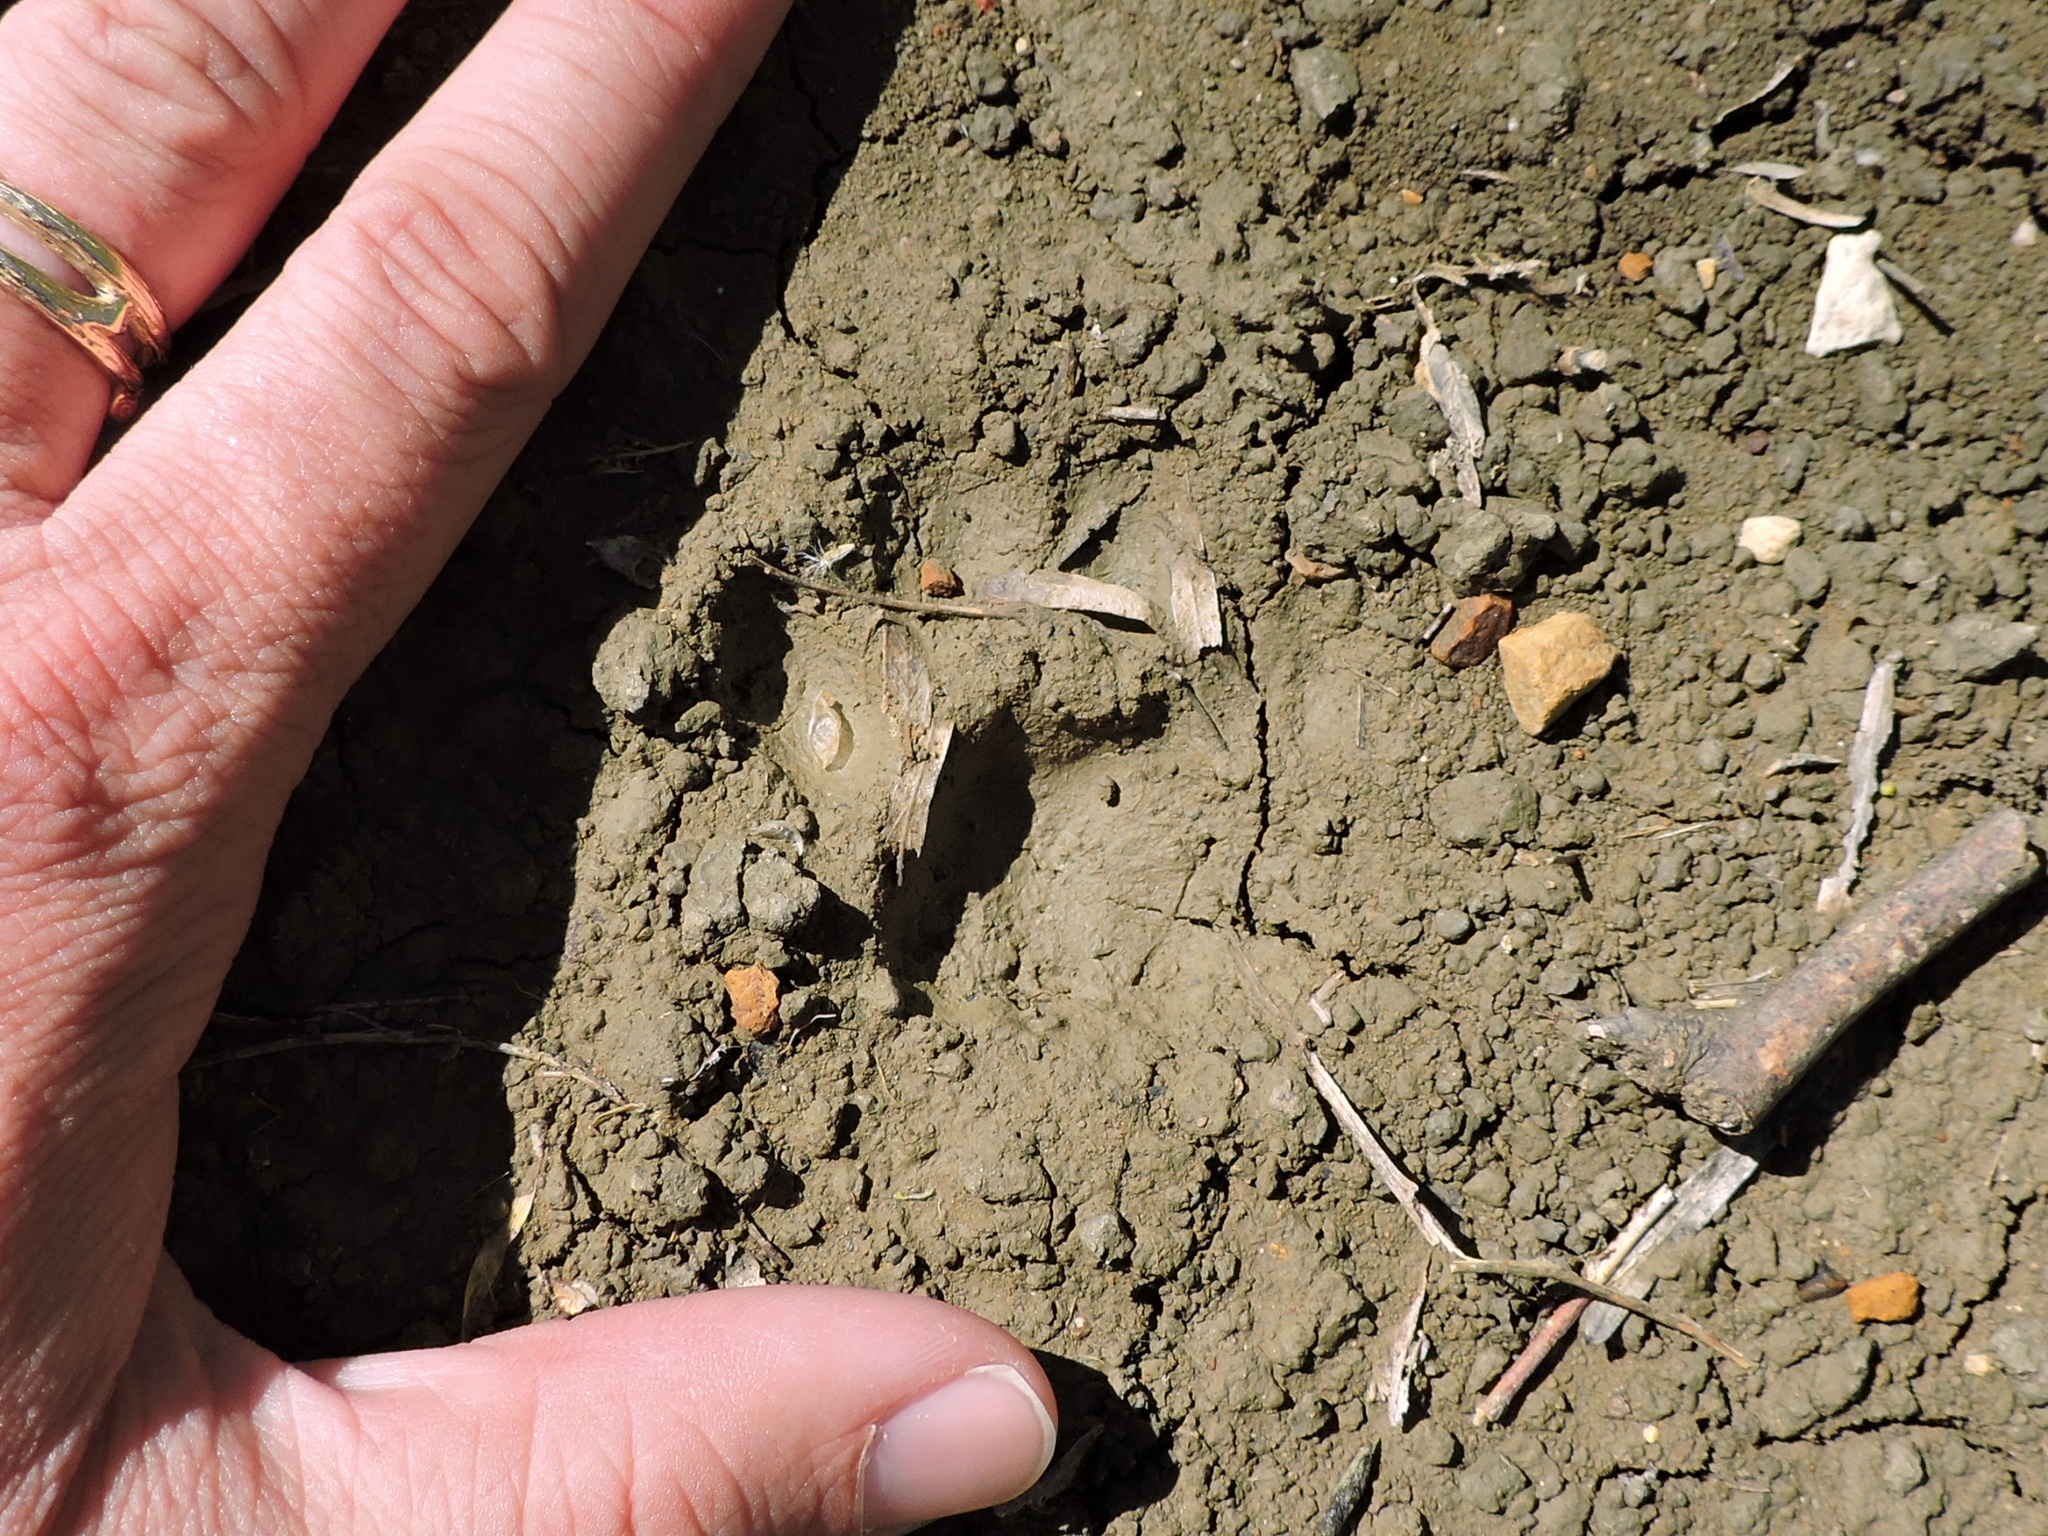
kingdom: Animalia
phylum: Chordata
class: Mammalia
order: Carnivora
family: Felidae
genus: Lynx
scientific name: Lynx rufus
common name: Bobcat
